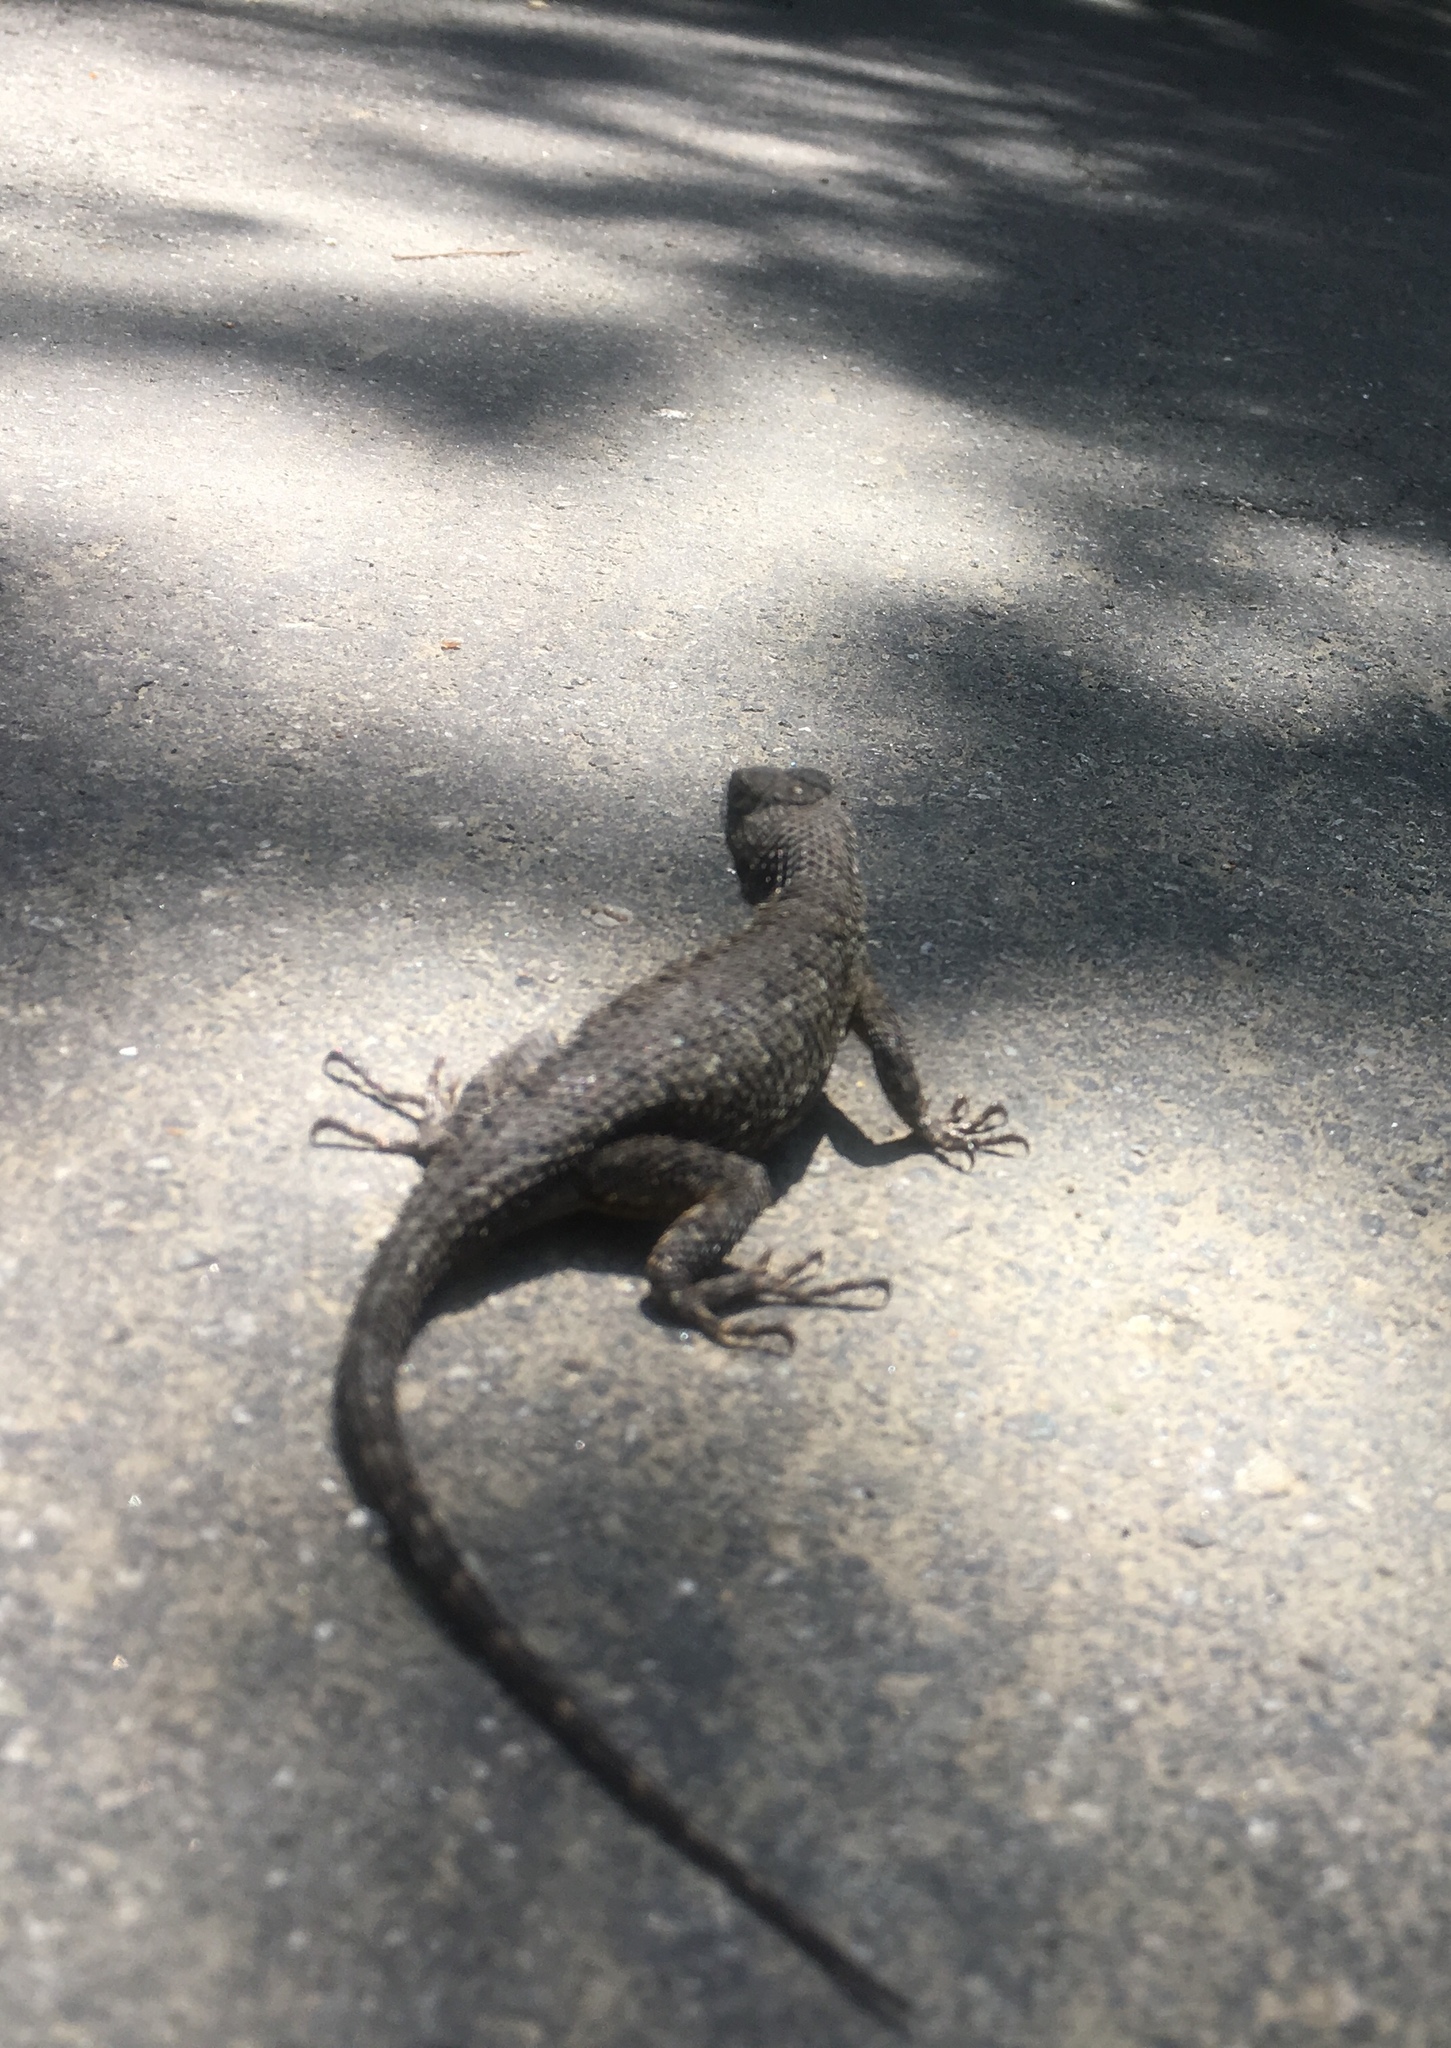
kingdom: Animalia
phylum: Chordata
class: Squamata
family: Phrynosomatidae
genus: Sceloporus
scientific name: Sceloporus occidentalis
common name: Western fence lizard
